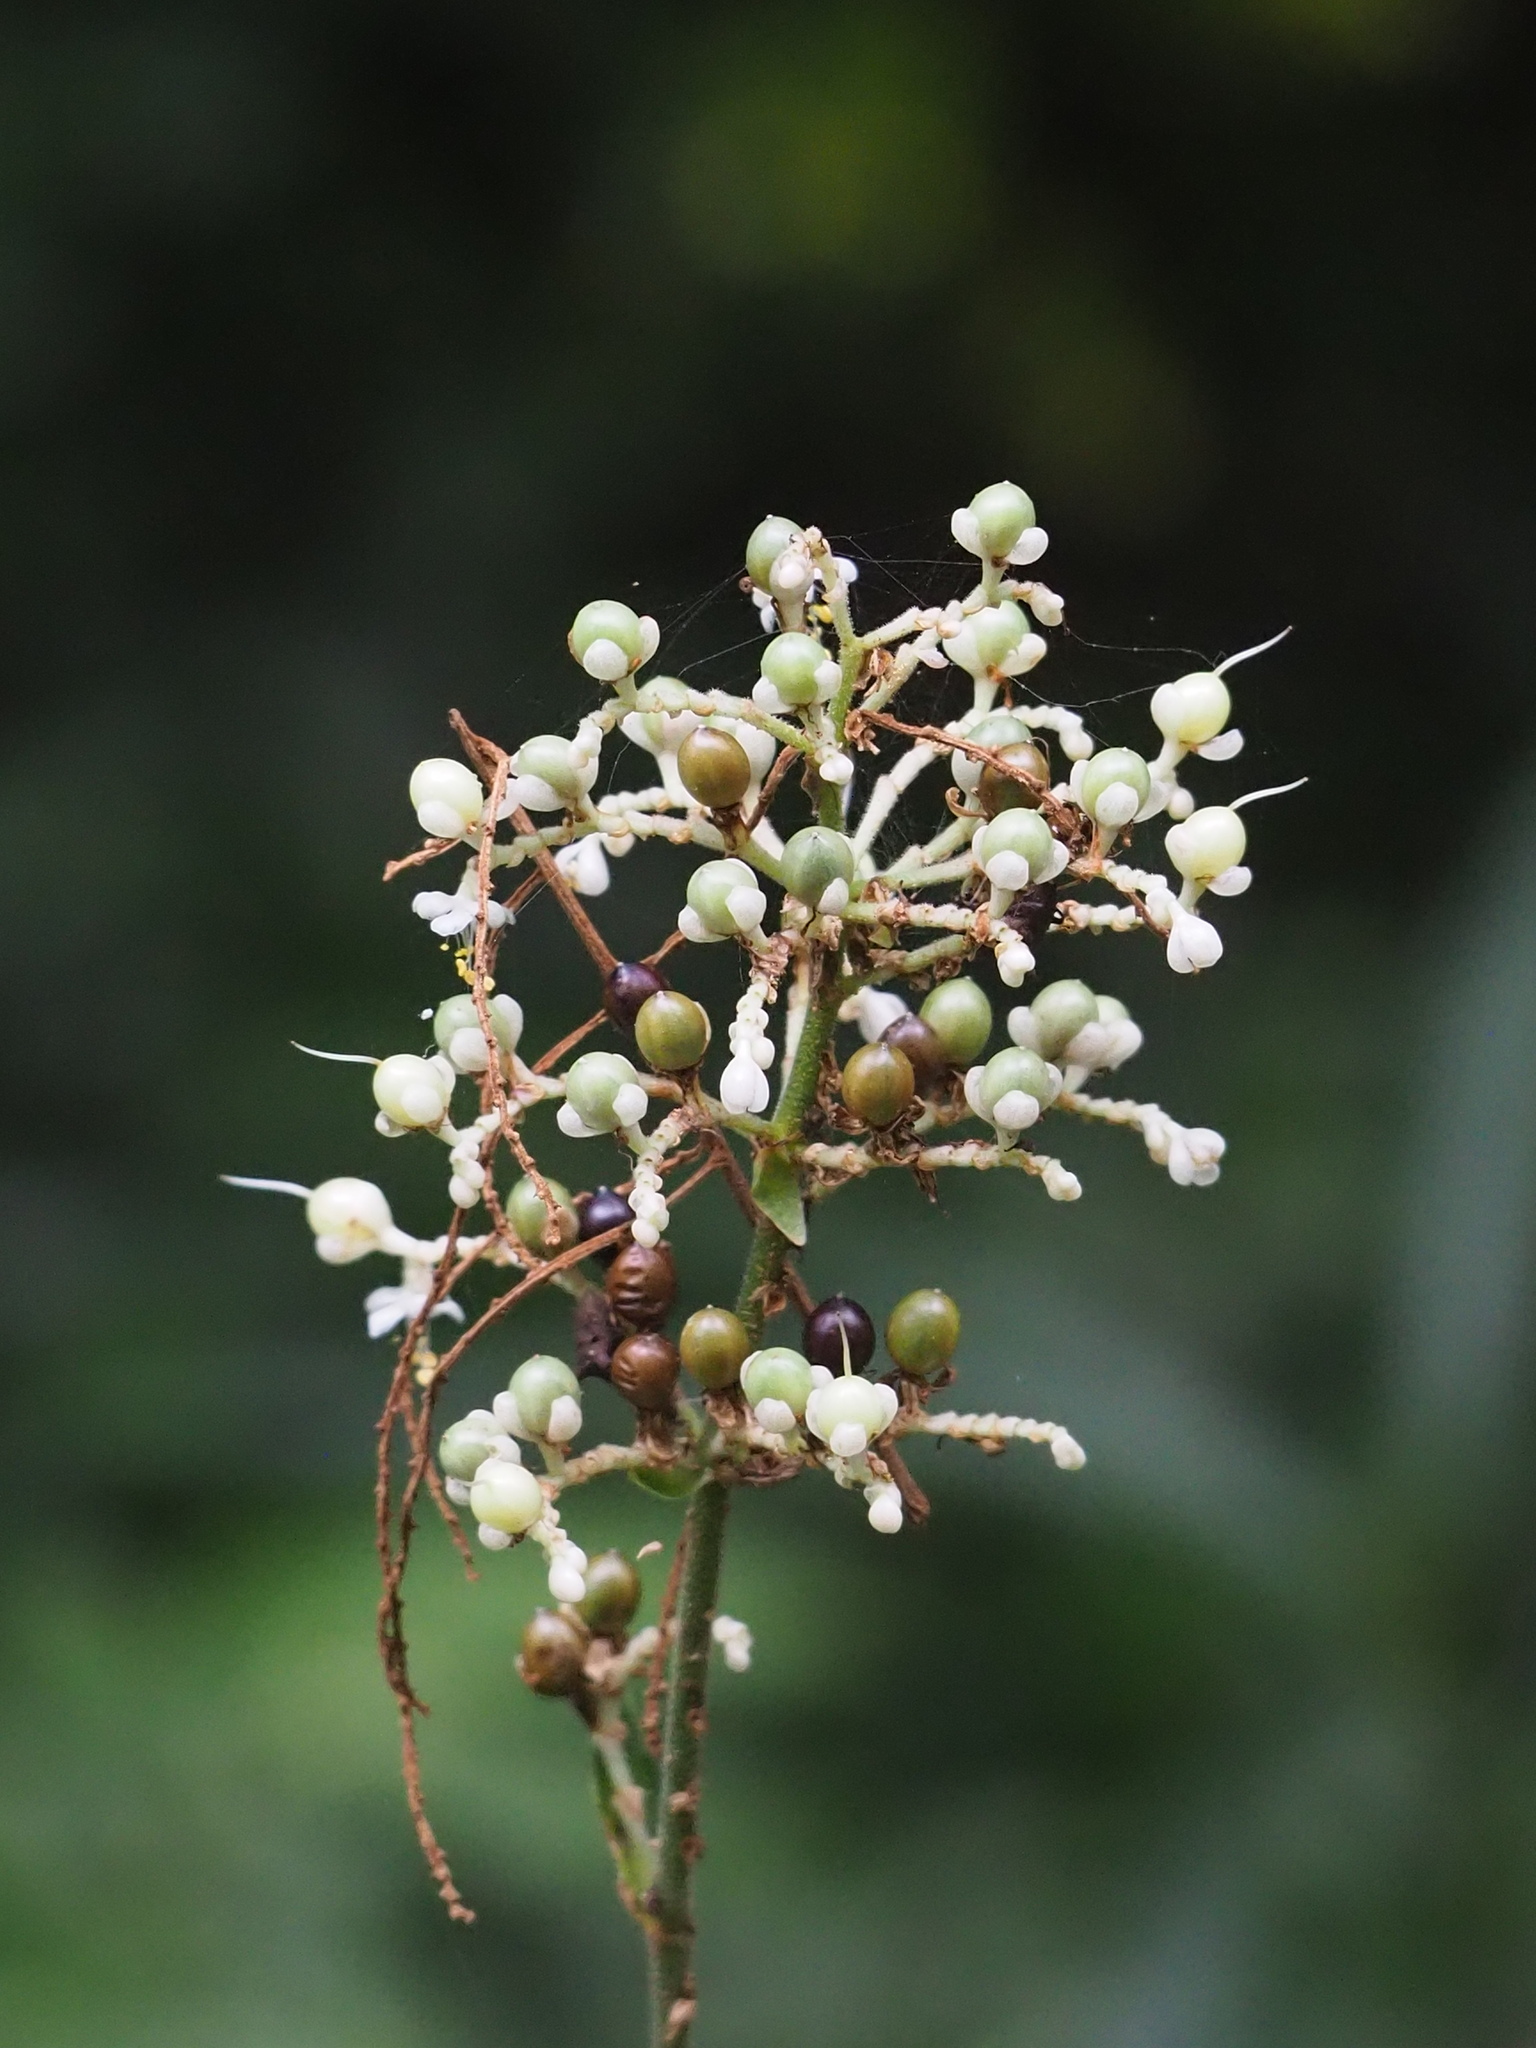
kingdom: Plantae
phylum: Tracheophyta
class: Liliopsida
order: Commelinales
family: Commelinaceae
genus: Pollia
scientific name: Pollia japonica
